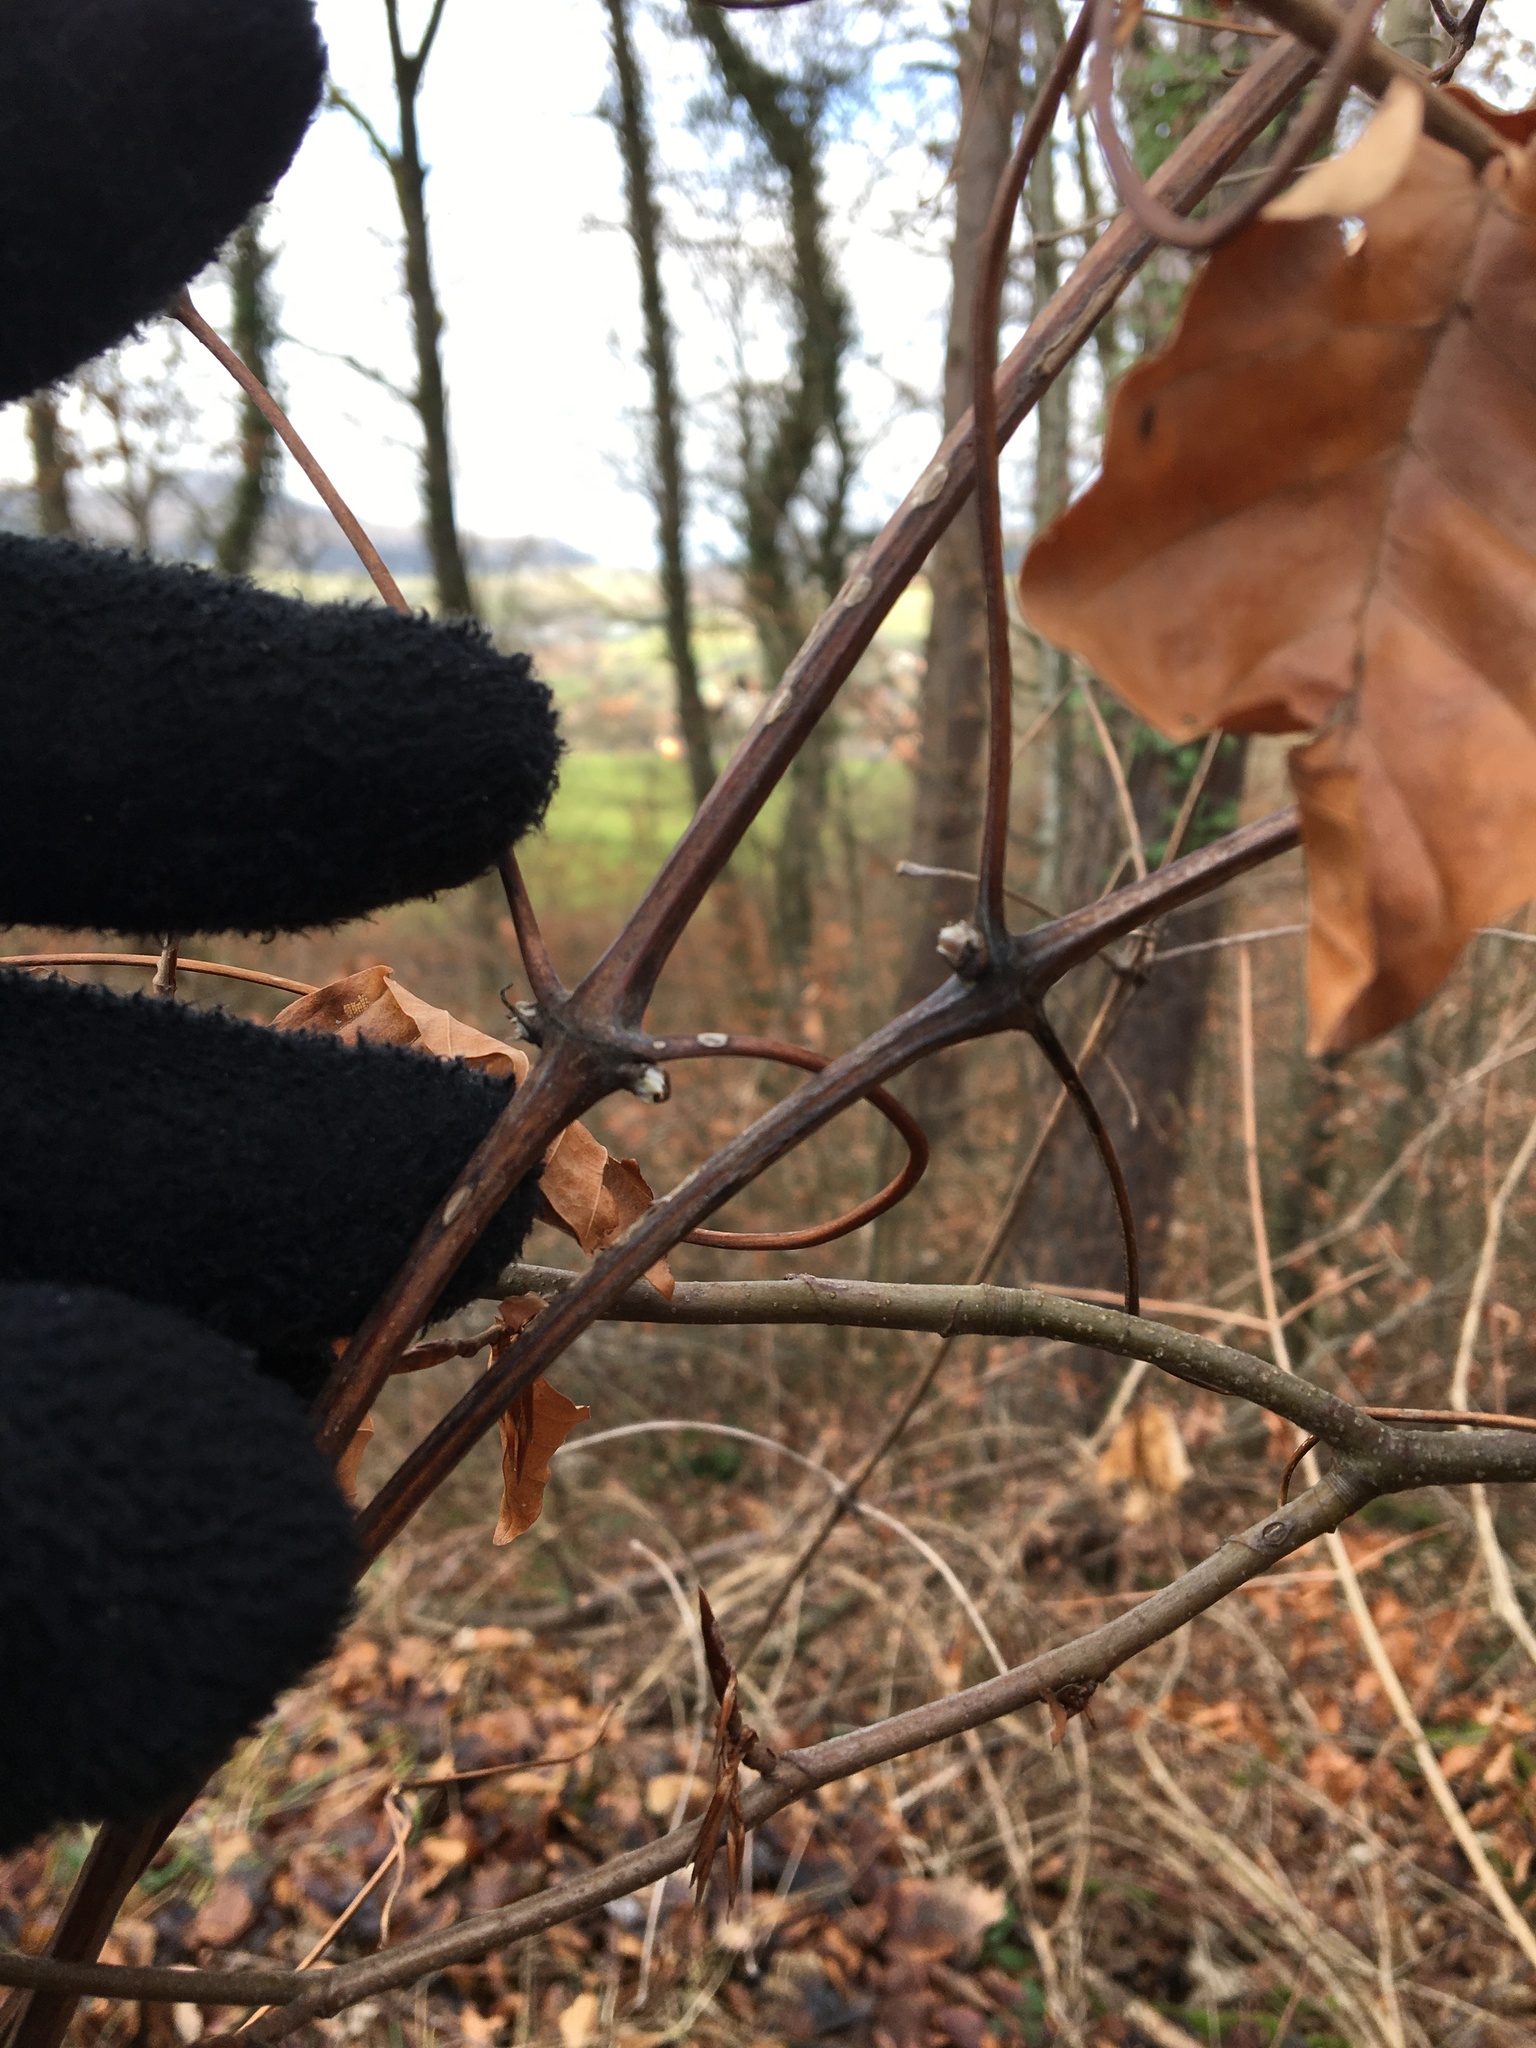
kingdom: Plantae
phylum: Tracheophyta
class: Magnoliopsida
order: Ranunculales
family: Ranunculaceae
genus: Clematis
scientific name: Clematis vitalba
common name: Evergreen clematis
